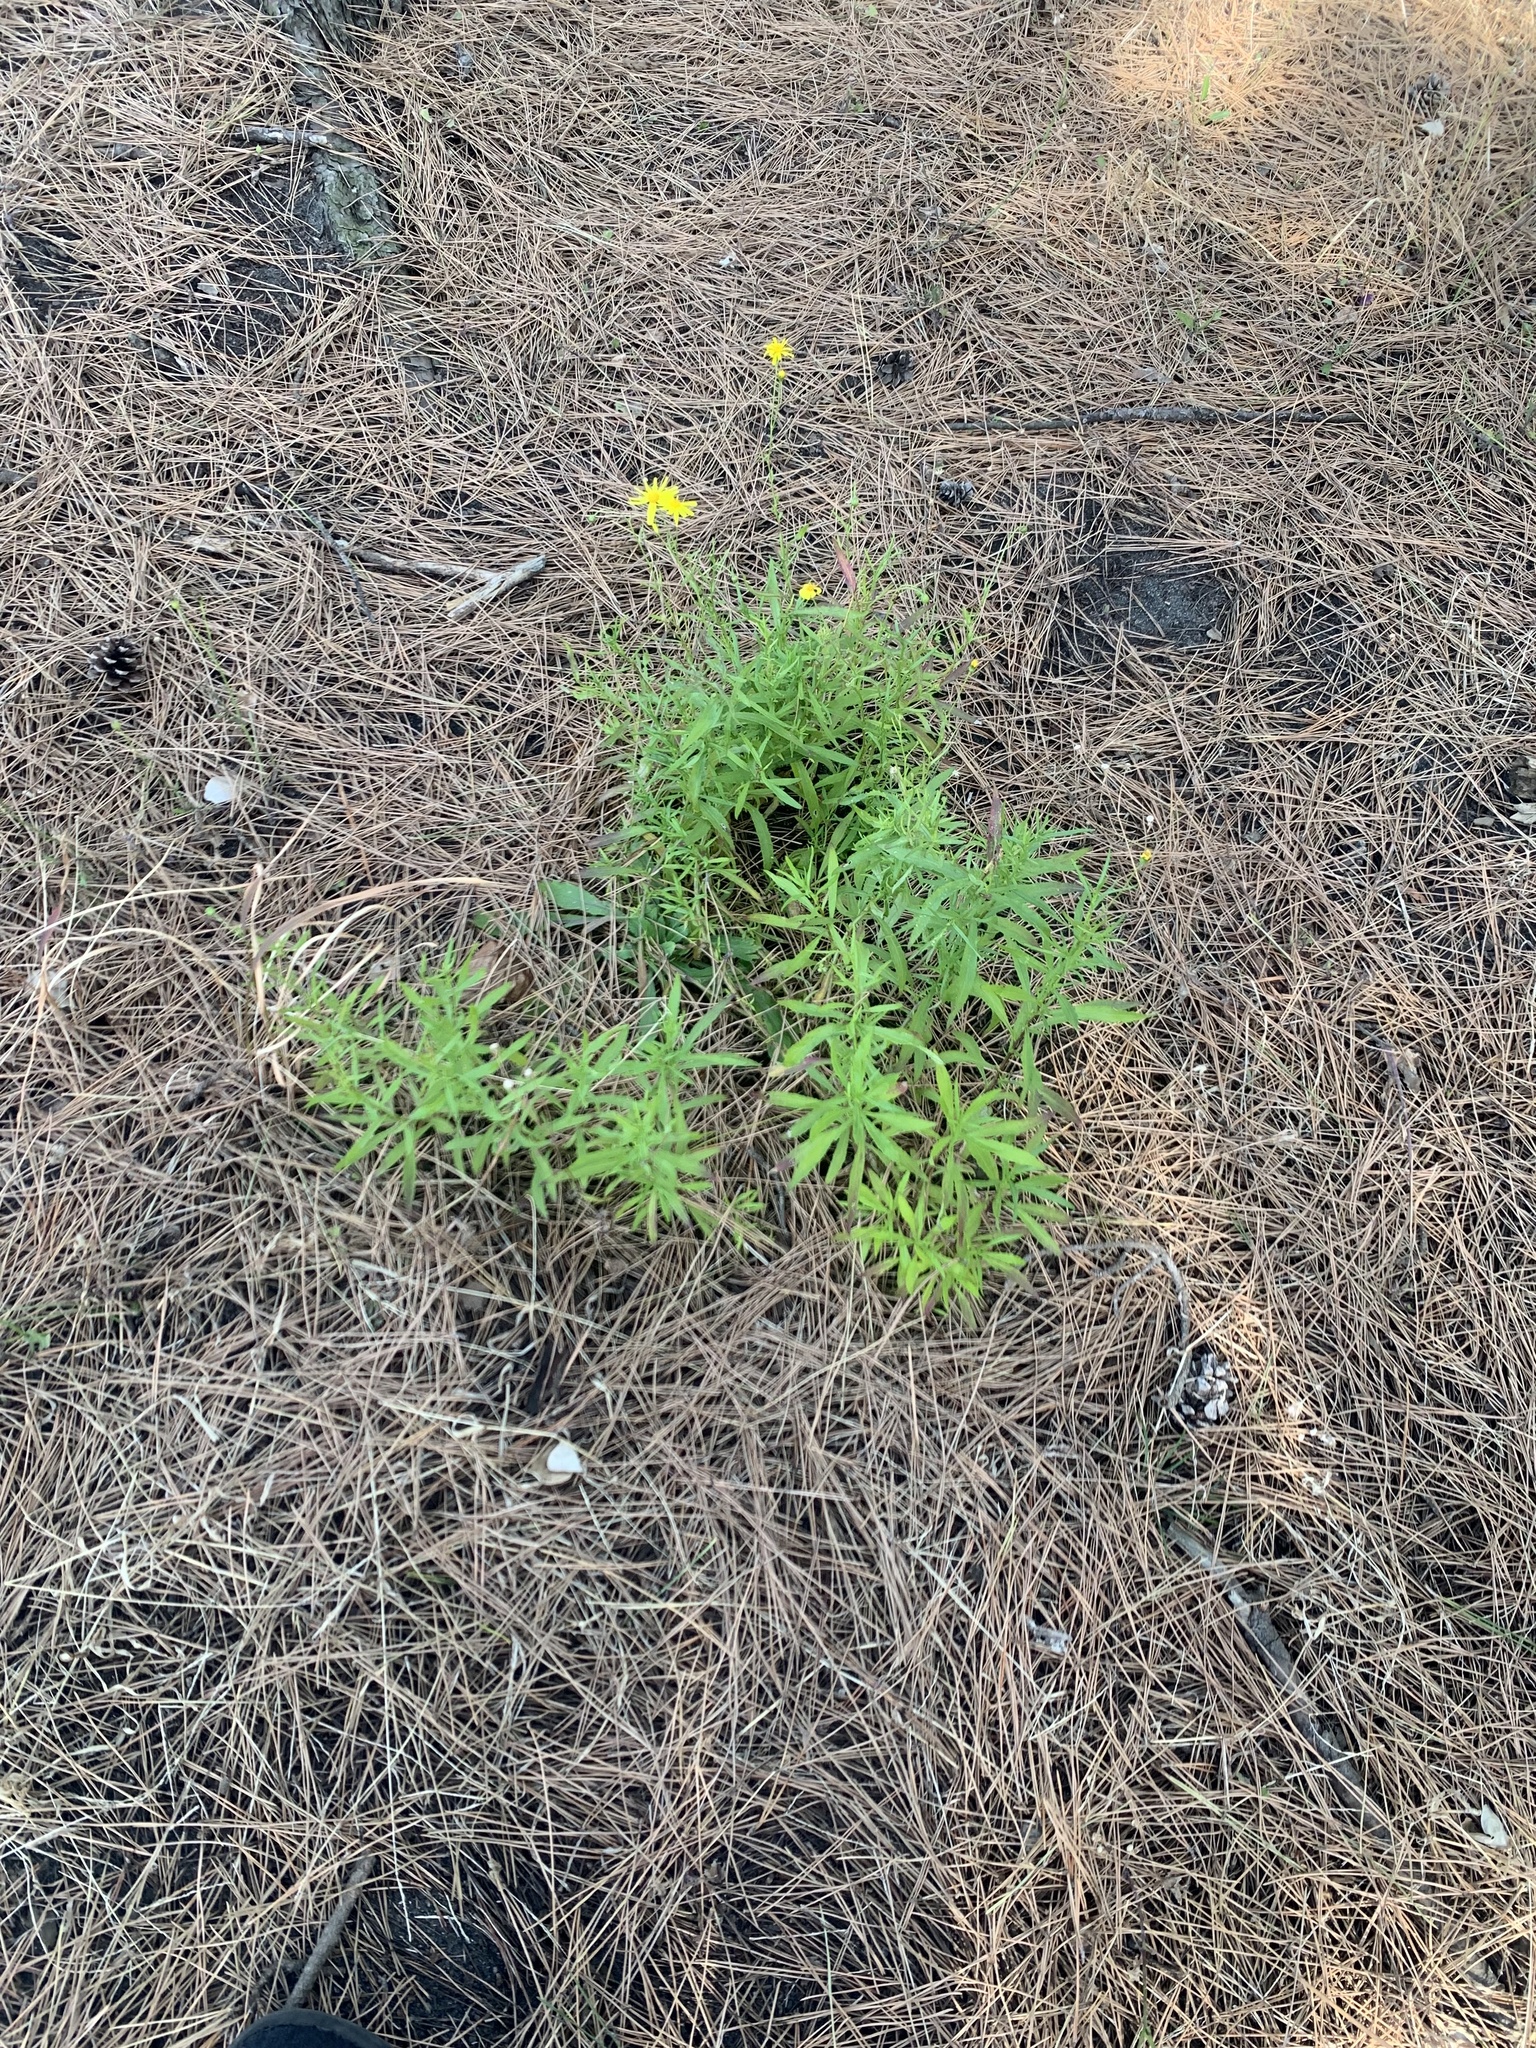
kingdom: Plantae
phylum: Tracheophyta
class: Magnoliopsida
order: Asterales
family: Asteraceae
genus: Senecio
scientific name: Senecio madagascariensis
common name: Madagascar ragwort
